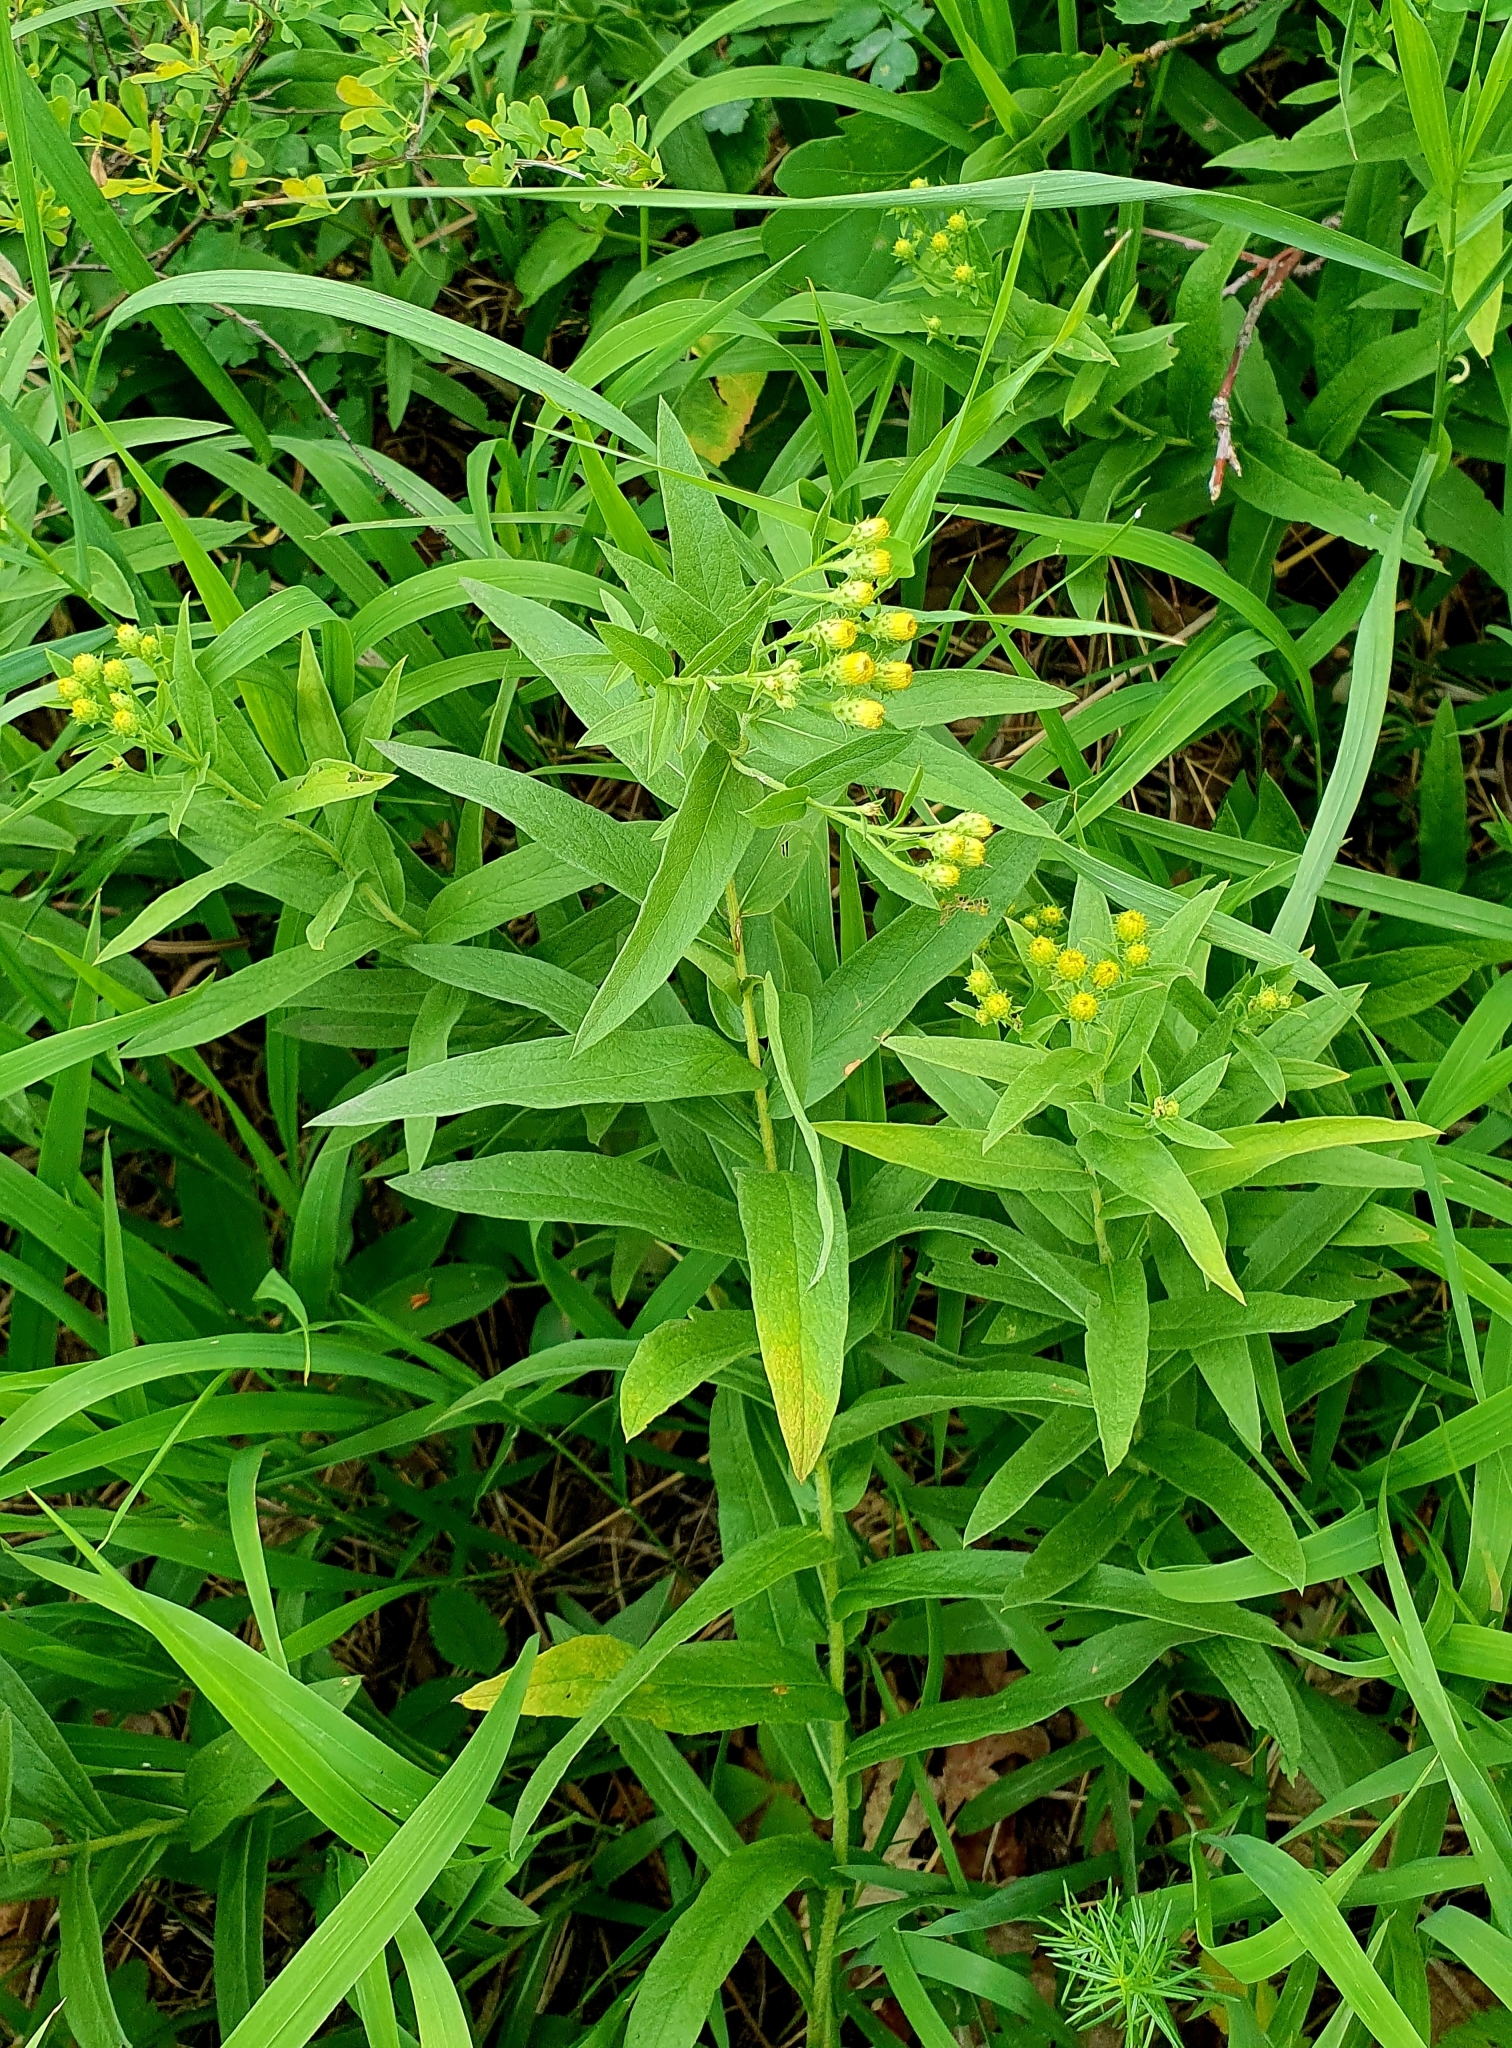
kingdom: Plantae
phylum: Tracheophyta
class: Magnoliopsida
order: Asterales
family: Asteraceae
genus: Pentanema
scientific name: Pentanema germanicum
